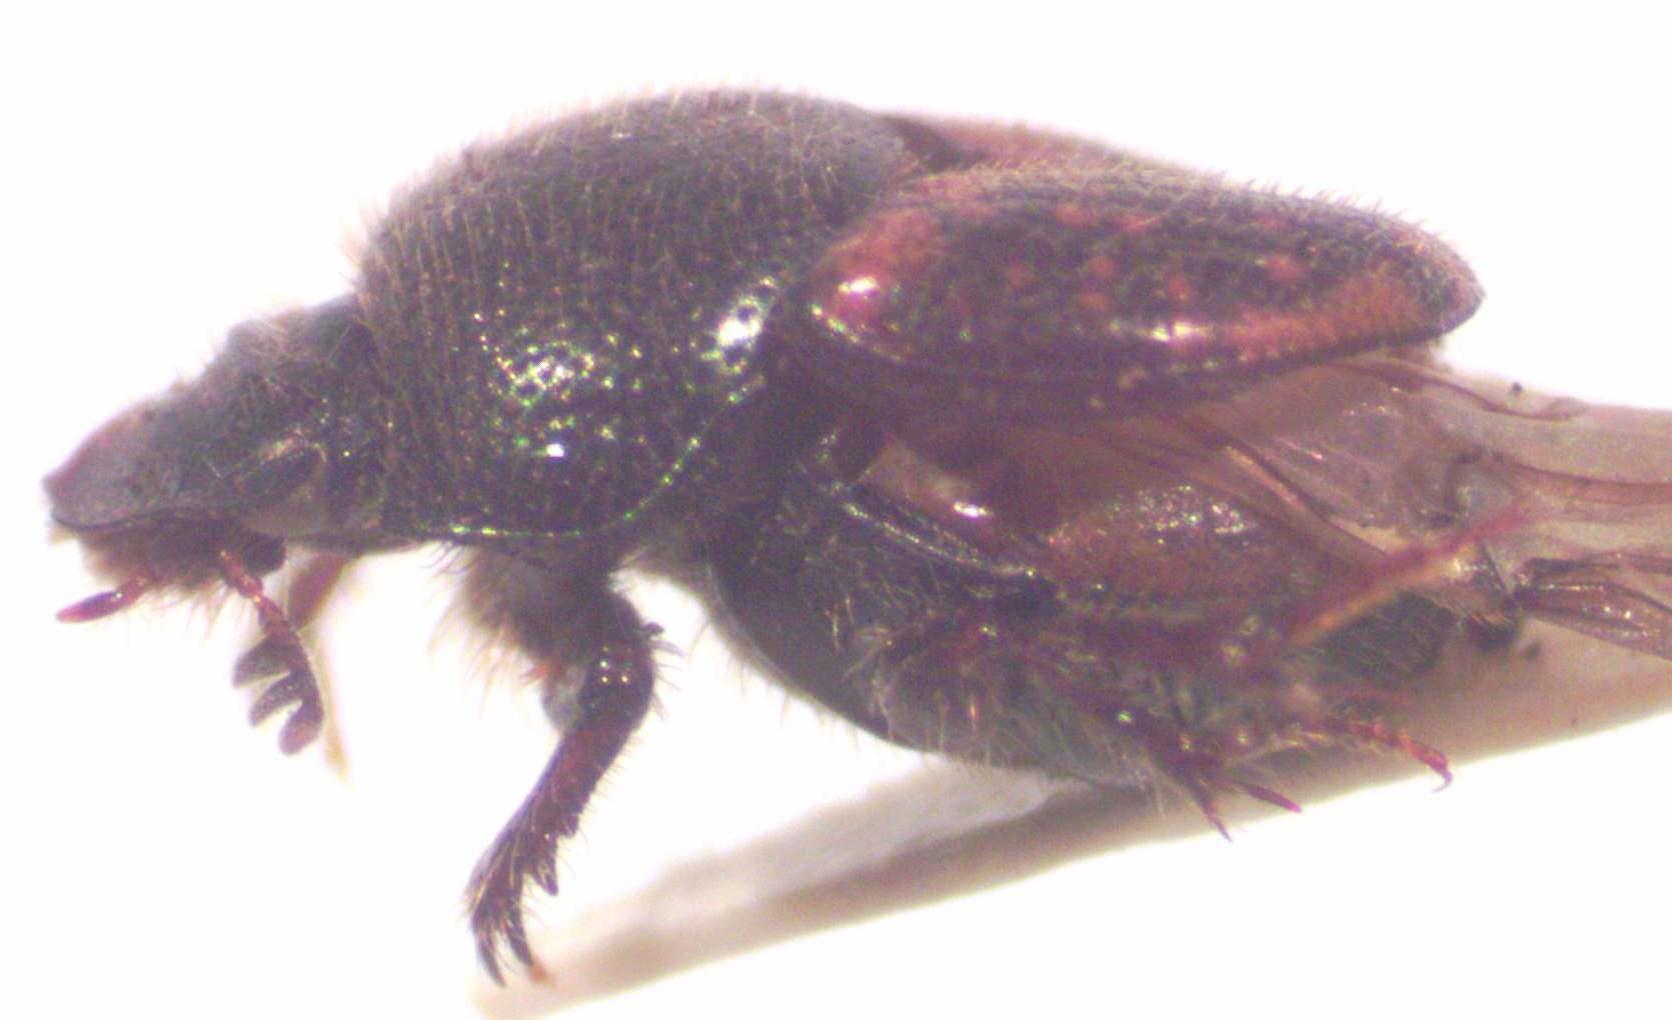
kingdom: Animalia
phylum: Arthropoda
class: Insecta
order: Coleoptera
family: Scarabaeidae
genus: Onthophagus
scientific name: Onthophagus hoepfneri
